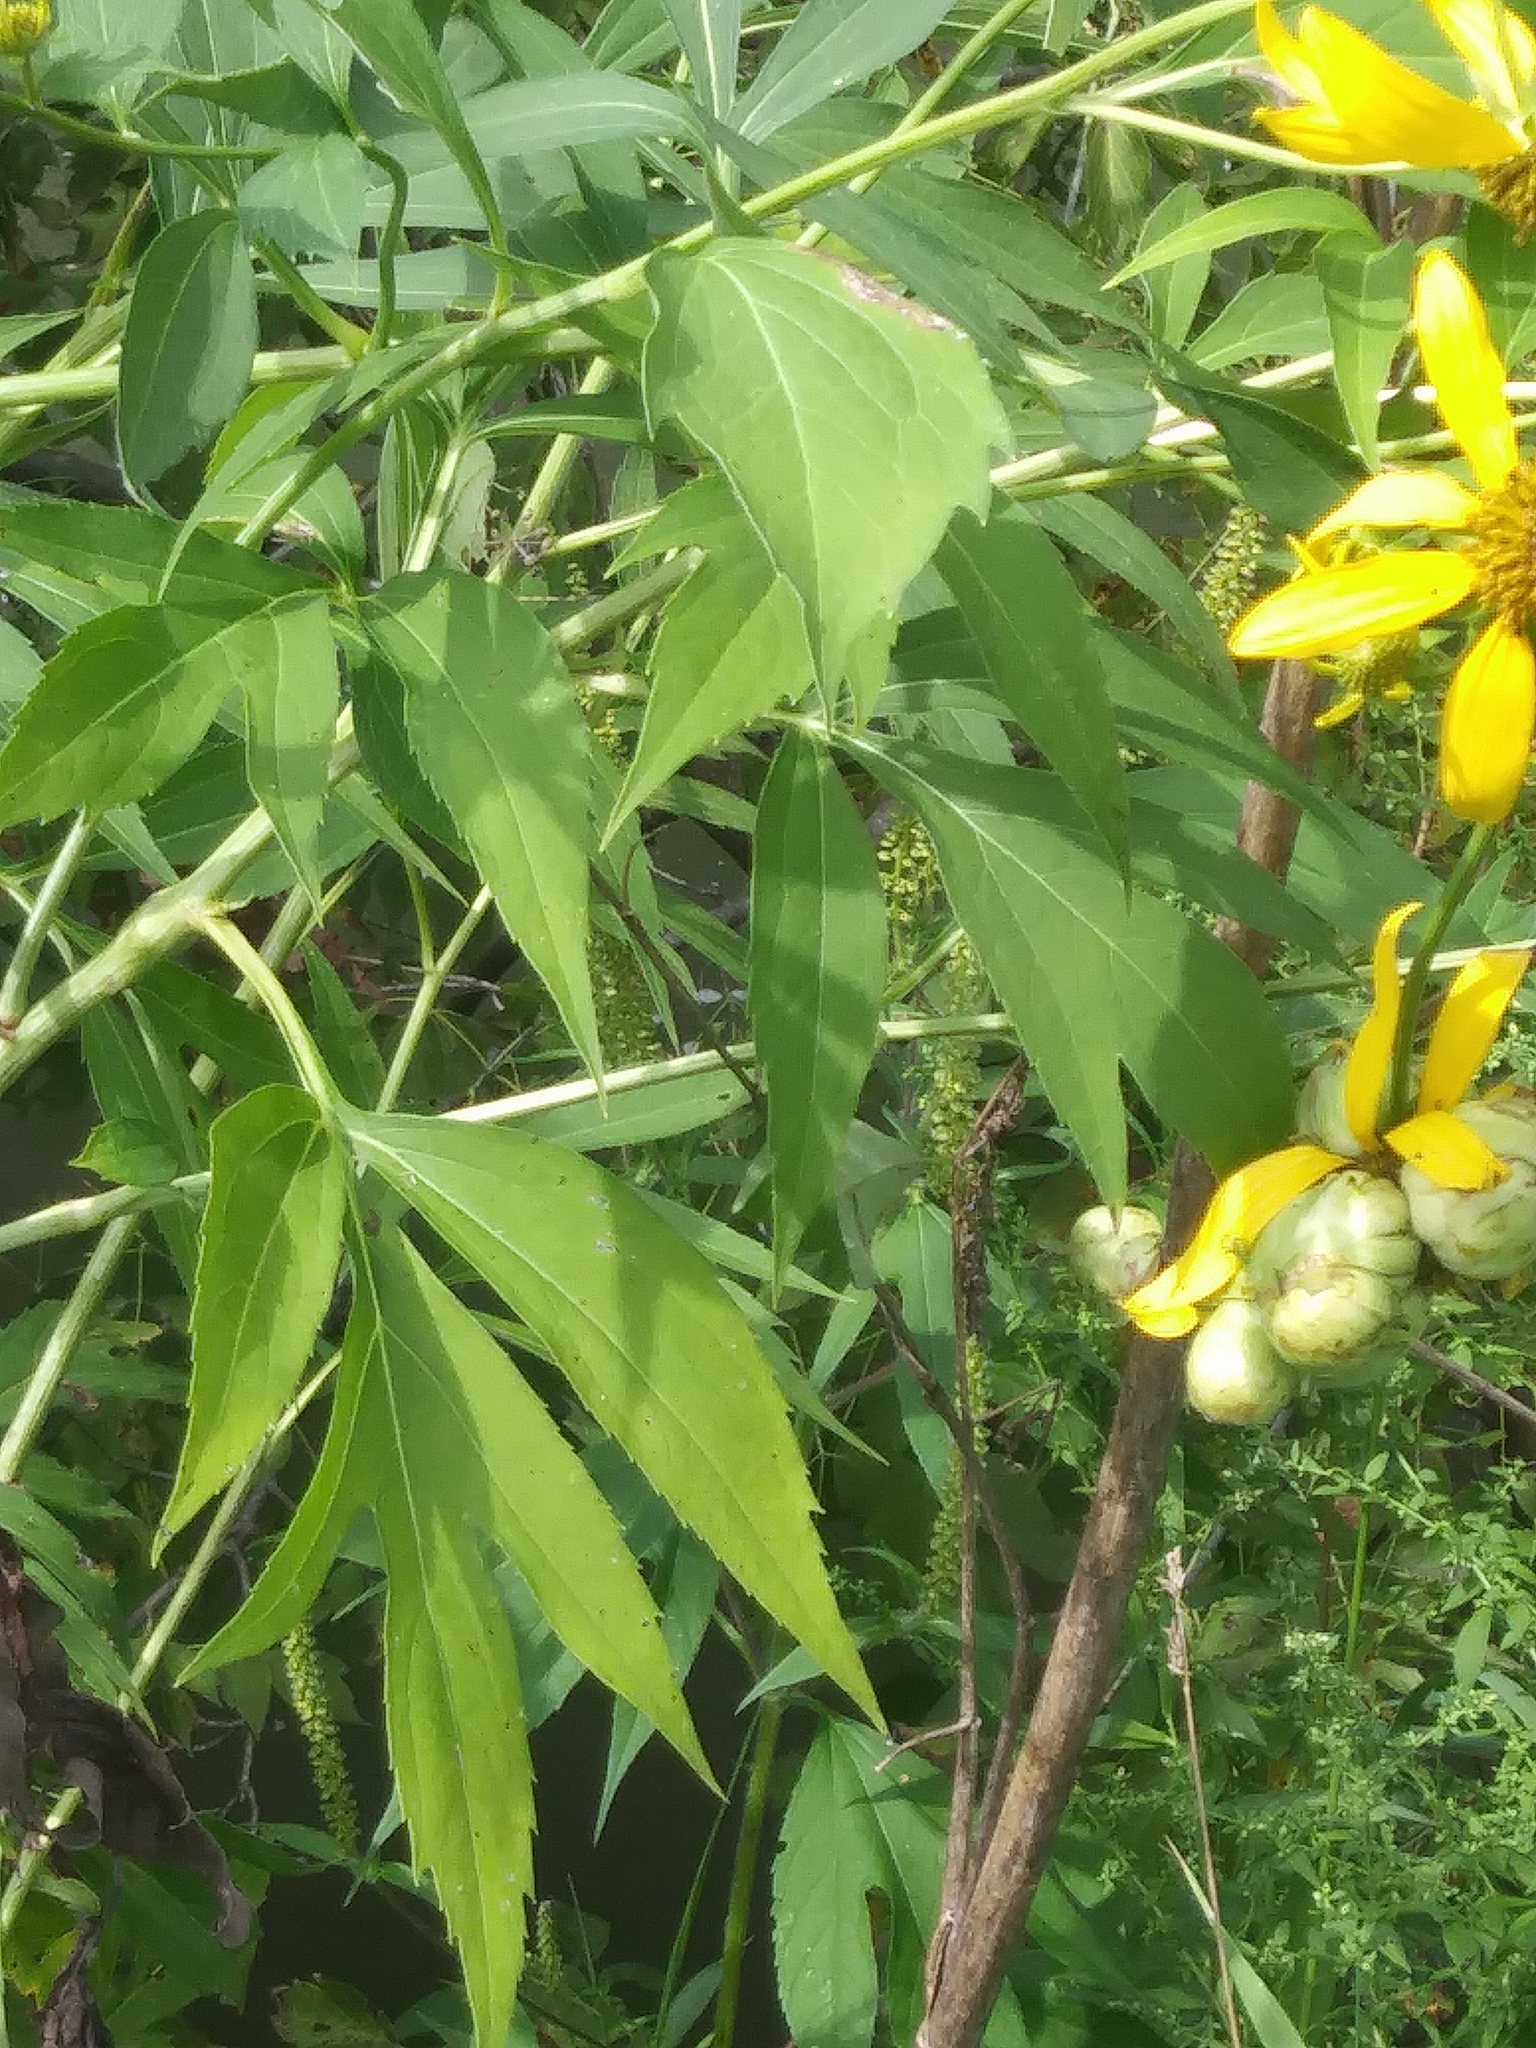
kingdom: Plantae
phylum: Tracheophyta
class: Magnoliopsida
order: Asterales
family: Asteraceae
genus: Rudbeckia
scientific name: Rudbeckia laciniata
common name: Coneflower
